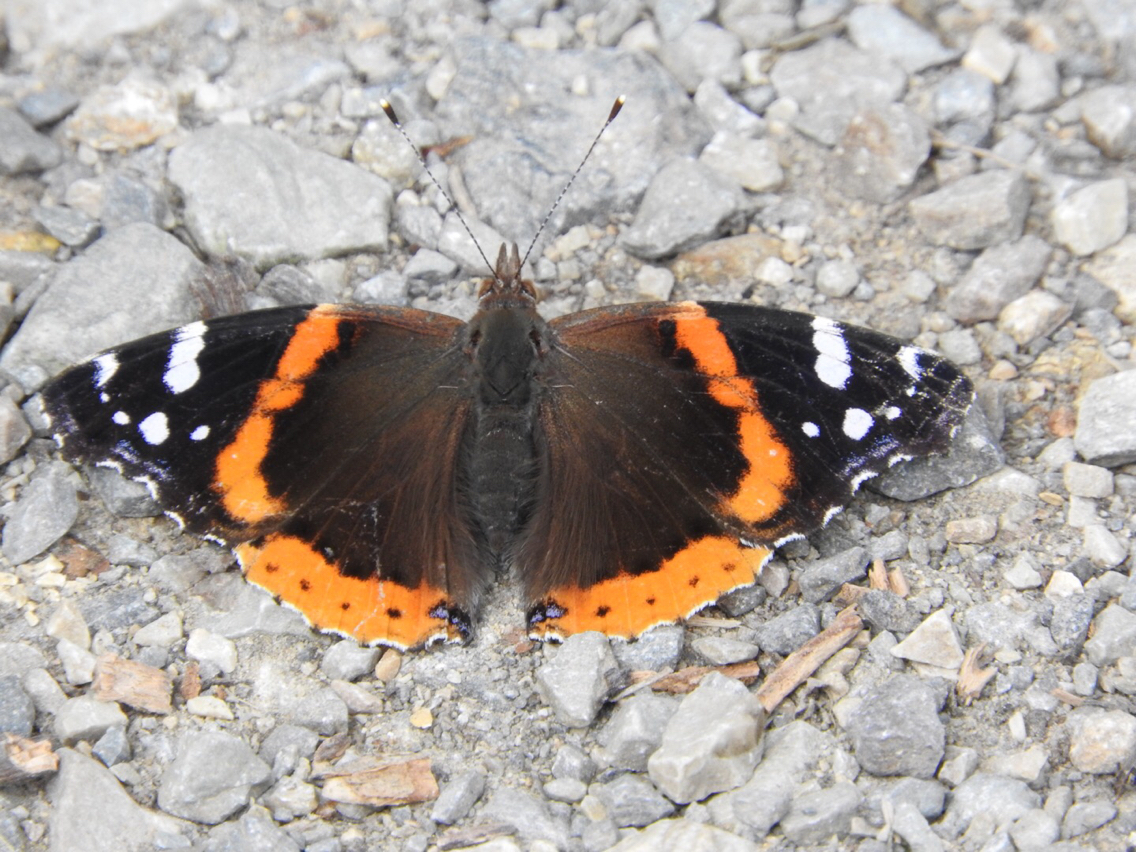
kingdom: Animalia
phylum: Arthropoda
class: Insecta
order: Lepidoptera
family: Nymphalidae
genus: Vanessa
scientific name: Vanessa atalanta
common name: Red admiral
